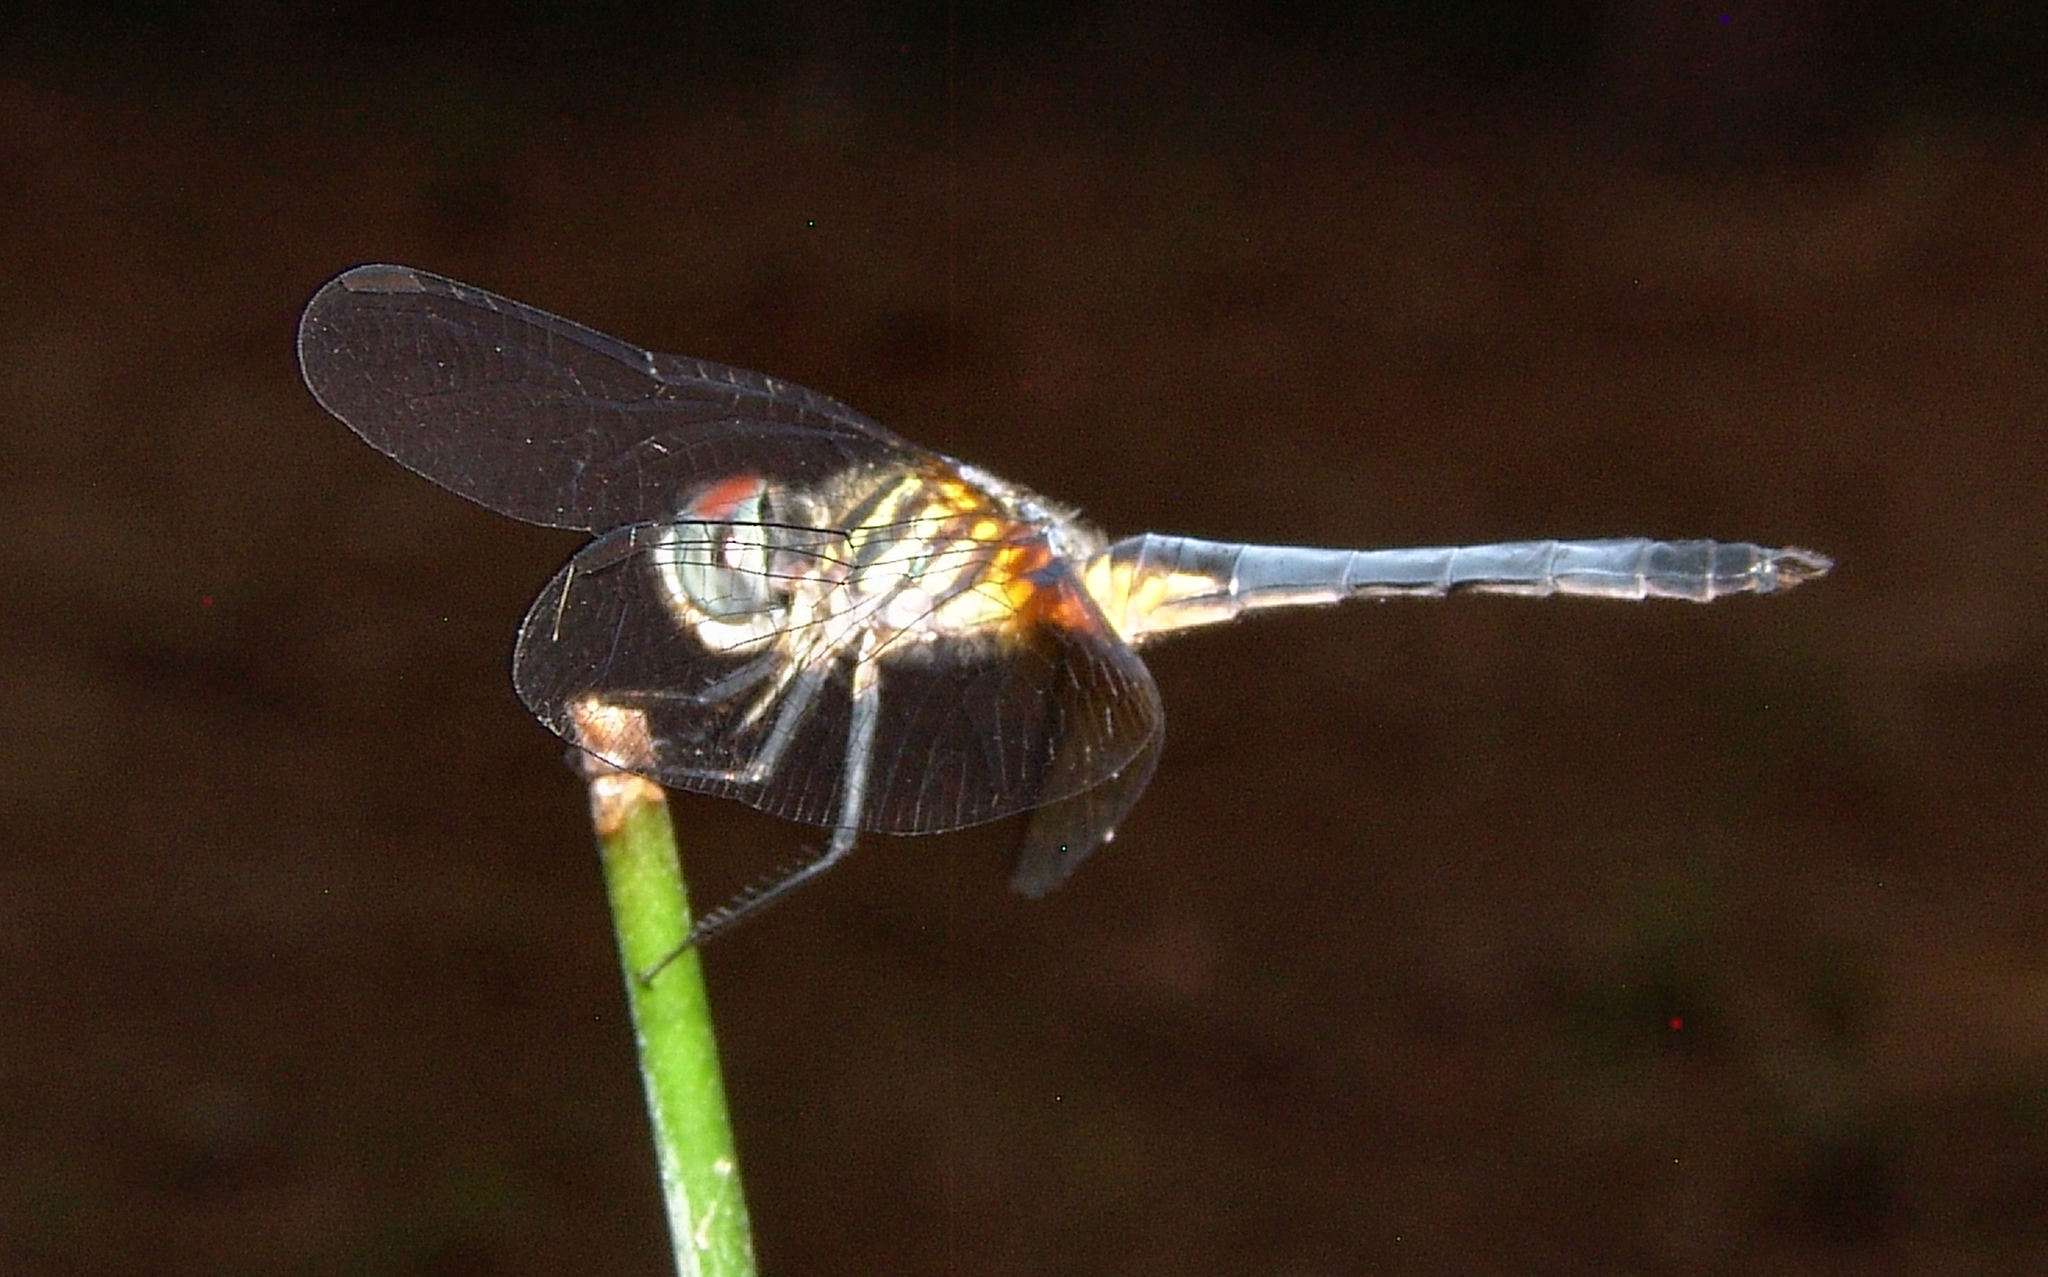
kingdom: Animalia
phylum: Arthropoda
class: Insecta
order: Odonata
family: Libellulidae
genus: Pachydiplax
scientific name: Pachydiplax longipennis
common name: Blue dasher
